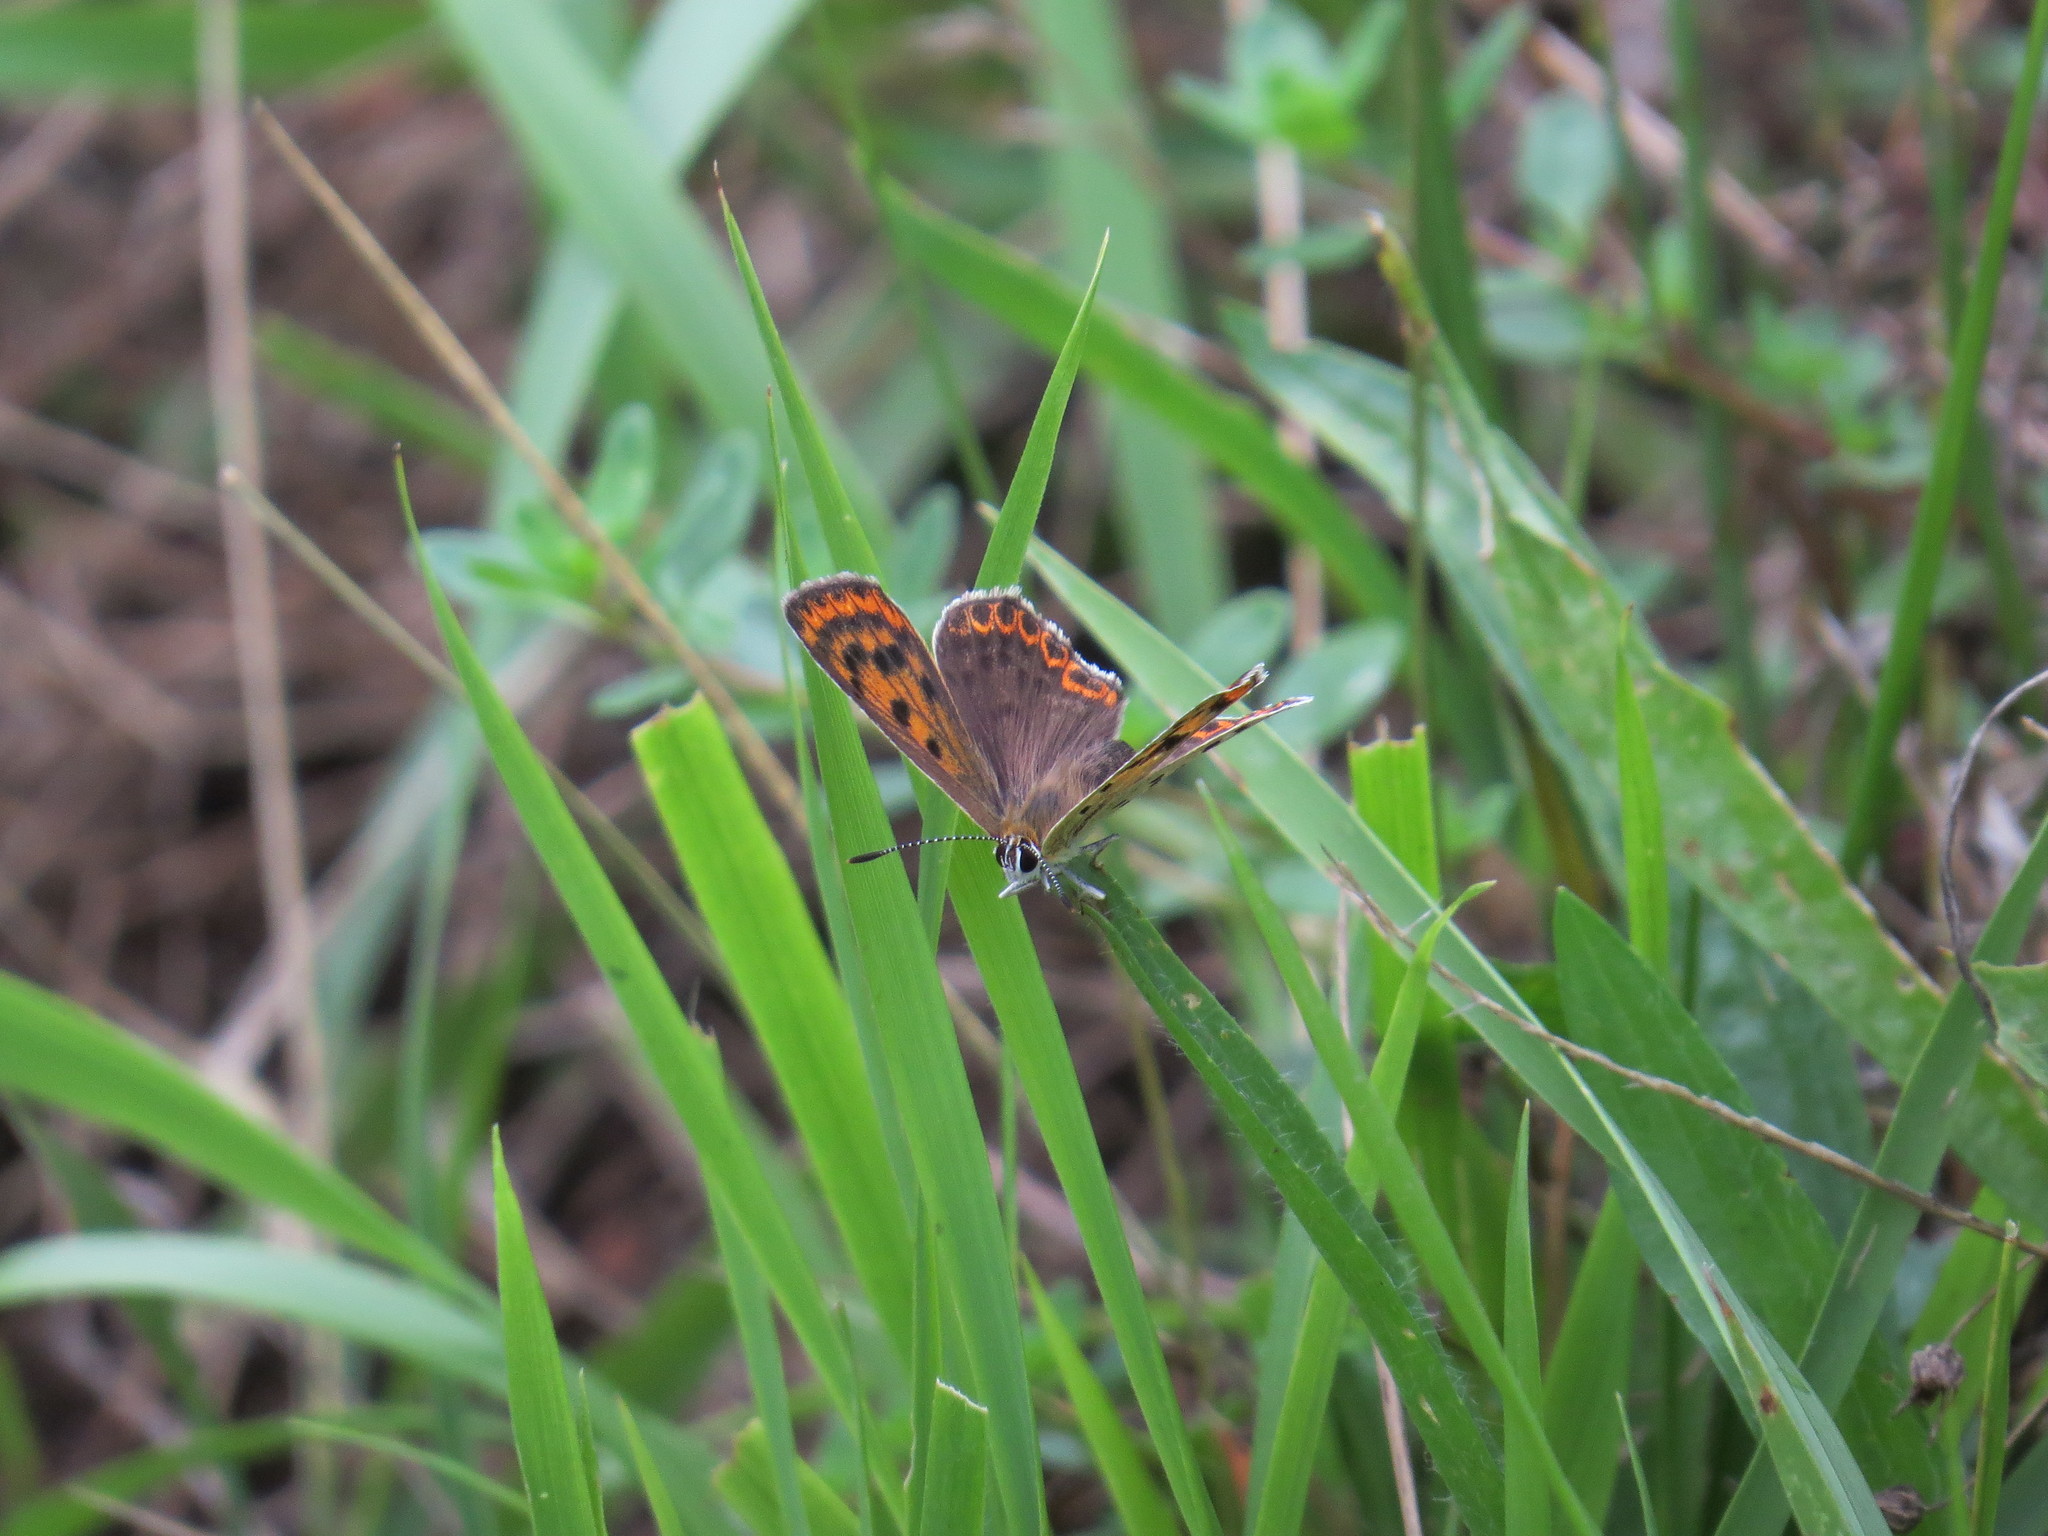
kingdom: Animalia
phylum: Arthropoda
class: Insecta
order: Lepidoptera
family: Lycaenidae
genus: Loweia
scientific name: Loweia tityrus
